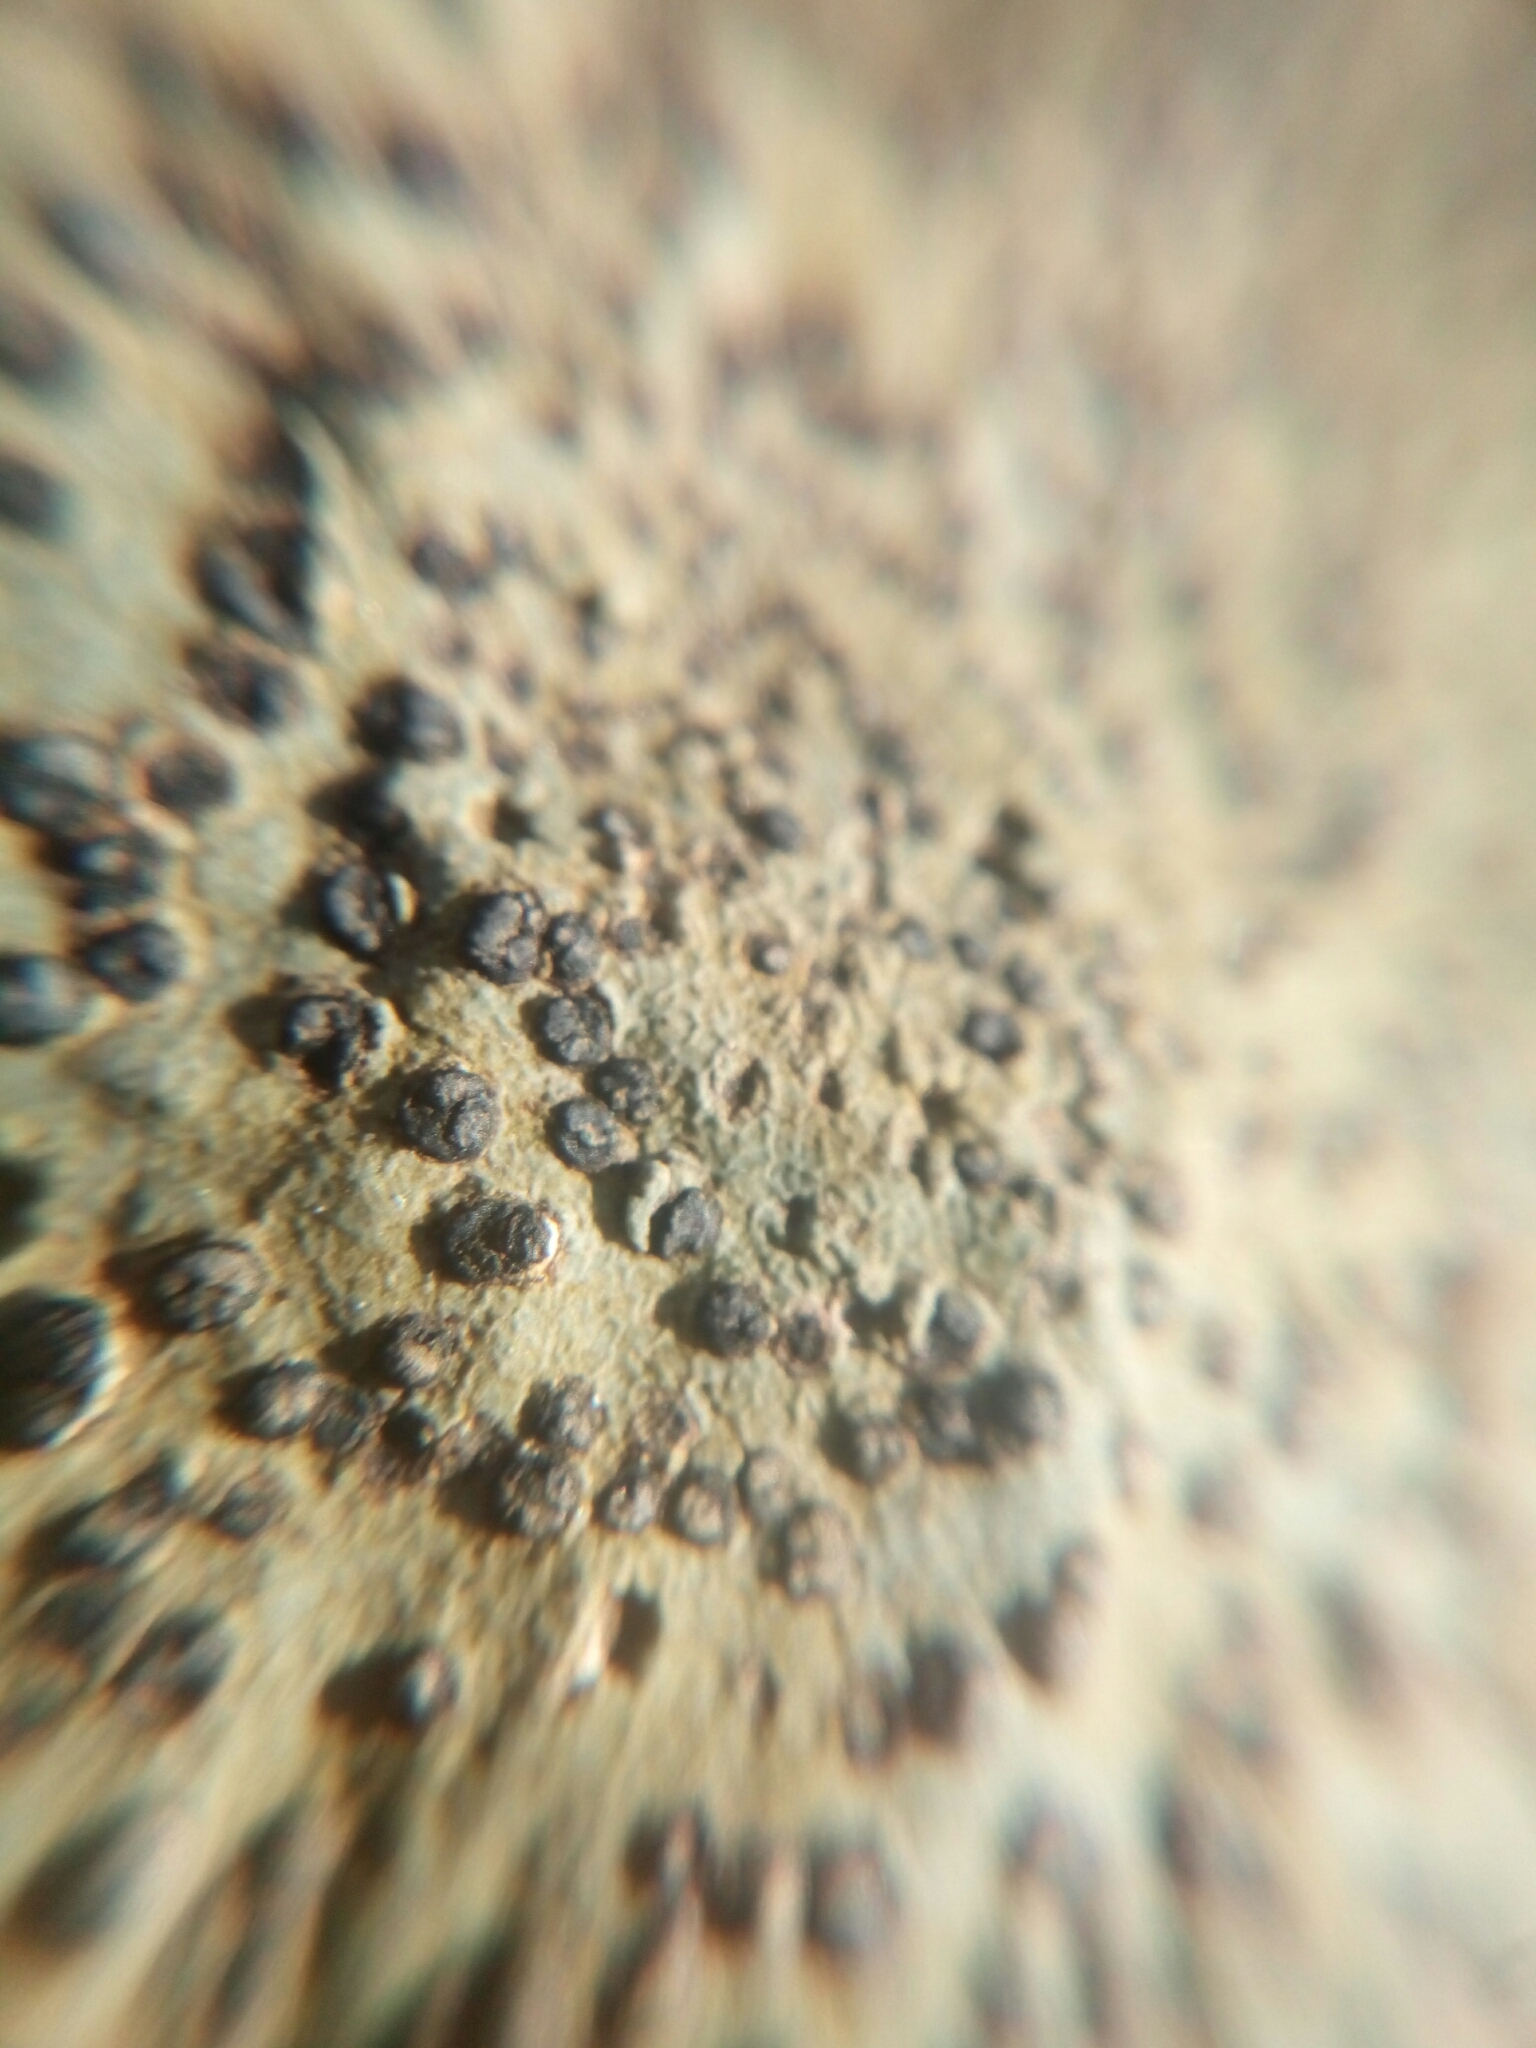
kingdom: Fungi
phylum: Ascomycota
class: Lecanoromycetes
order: Lecideales
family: Lecideaceae
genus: Porpidia
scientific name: Porpidia albocaerulescens
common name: Smokey-eyed boulder lichen
